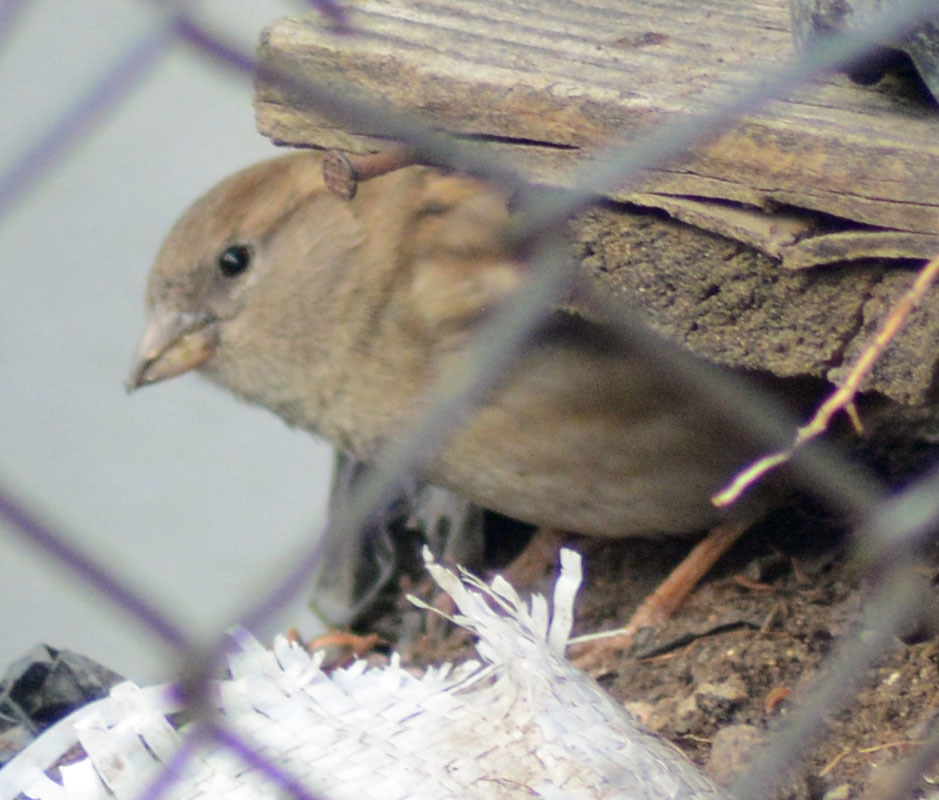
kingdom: Animalia
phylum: Chordata
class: Aves
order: Passeriformes
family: Passeridae
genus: Passer
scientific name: Passer domesticus
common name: House sparrow
